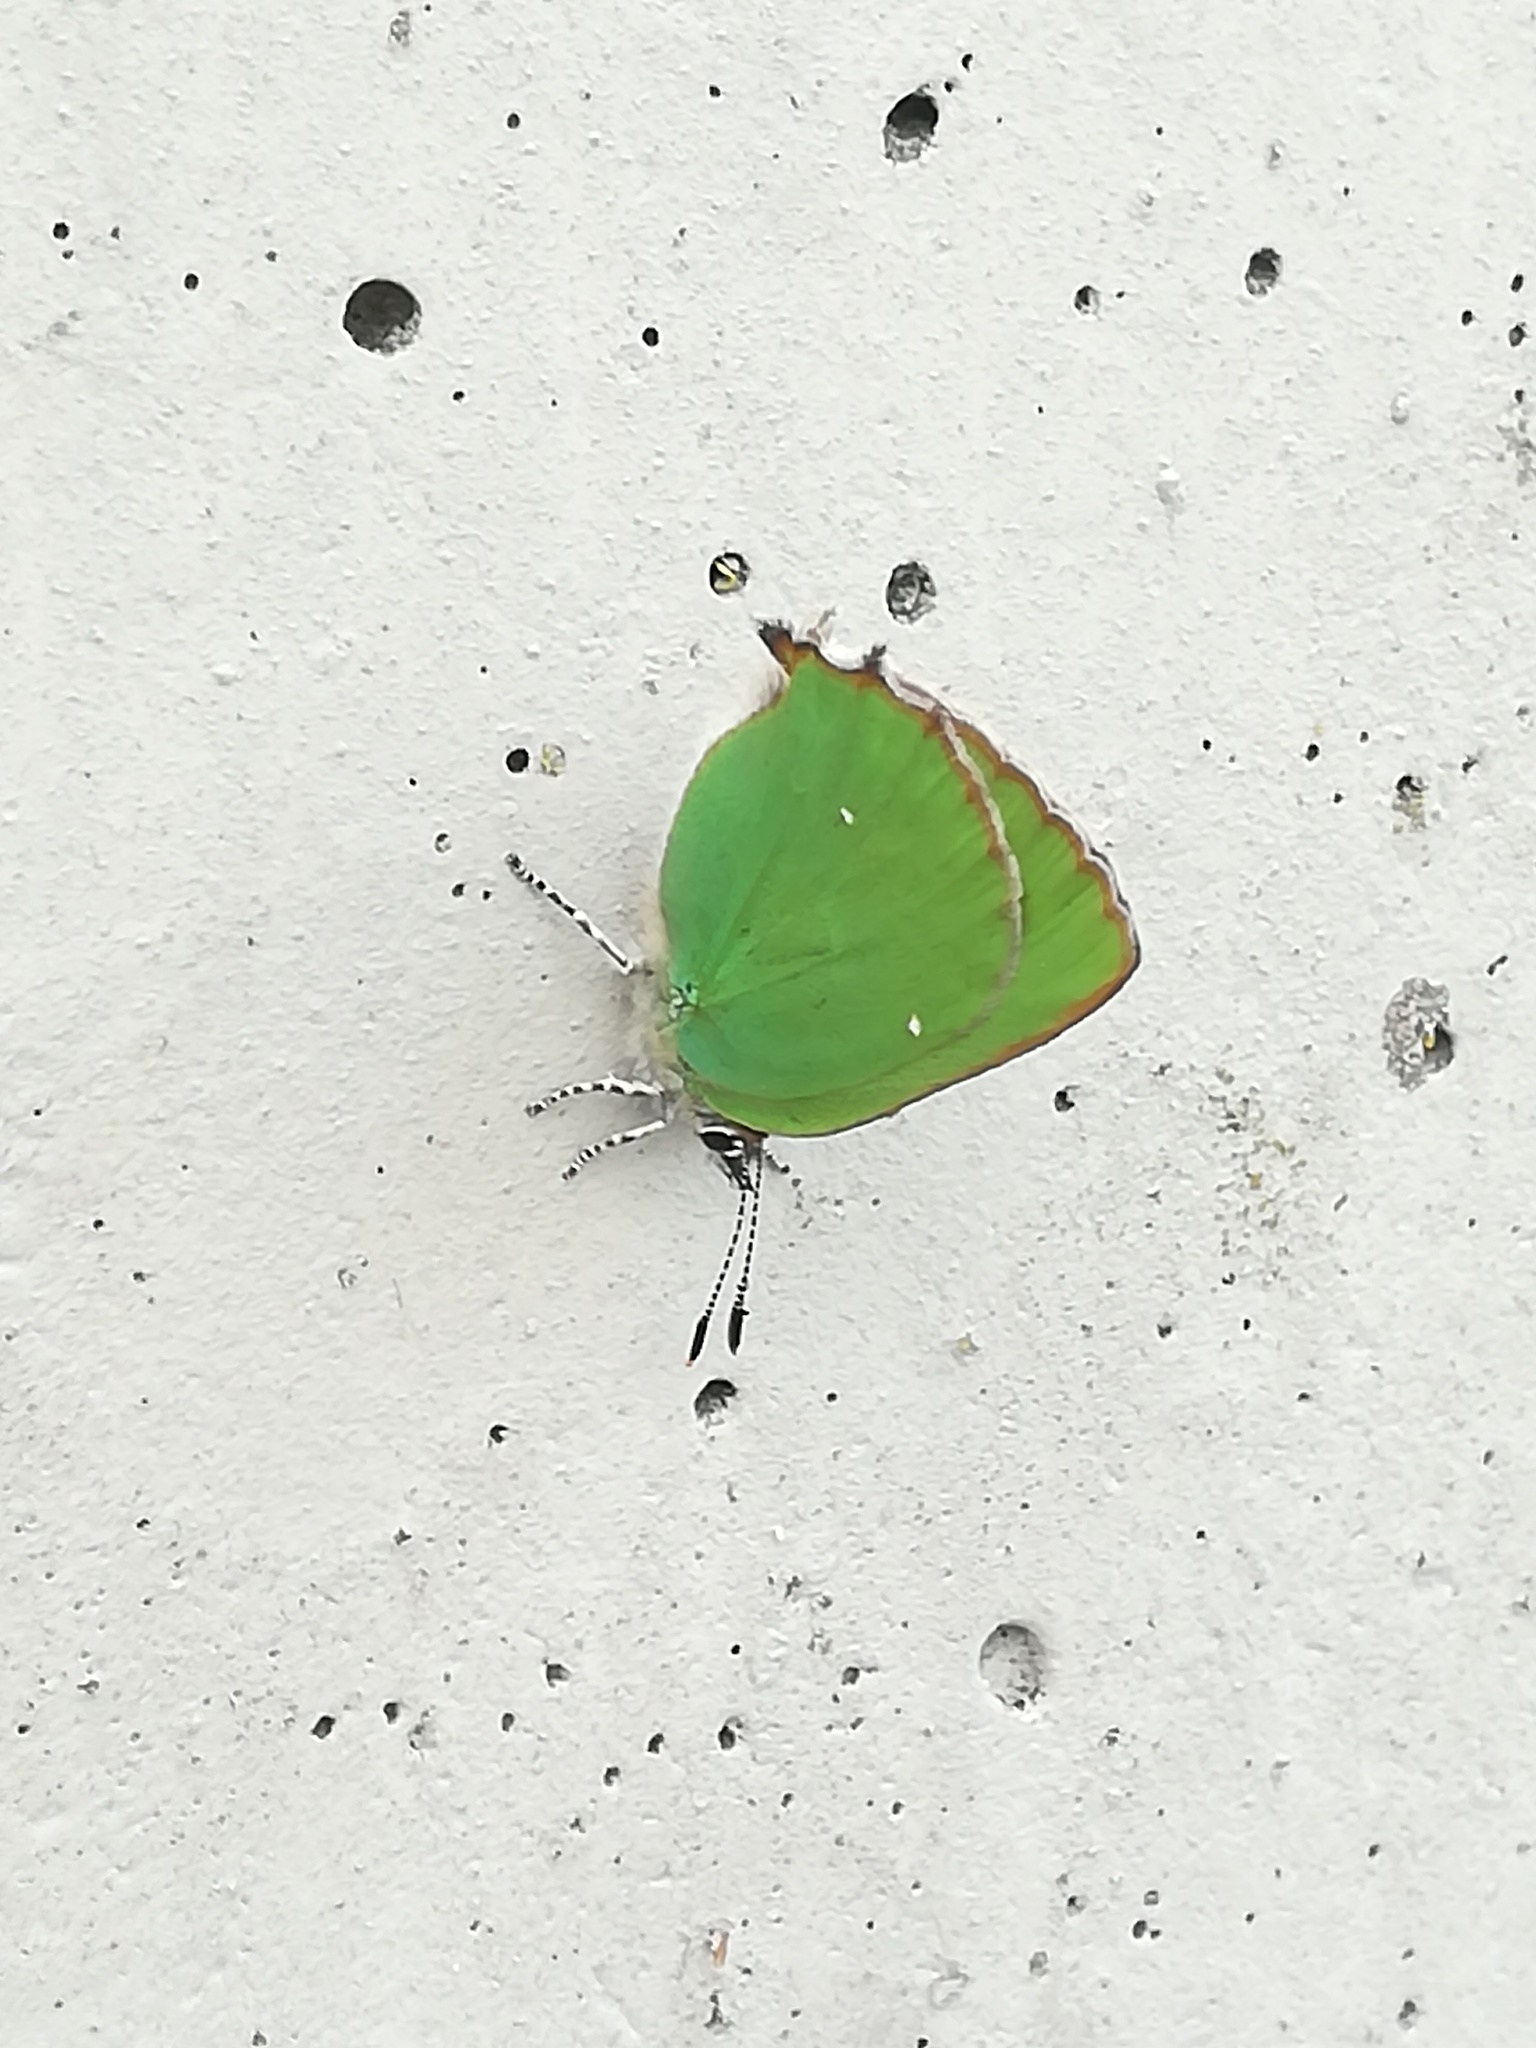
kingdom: Animalia
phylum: Arthropoda
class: Insecta
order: Lepidoptera
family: Lycaenidae
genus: Callophrys
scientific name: Callophrys rubi
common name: Green hairstreak
